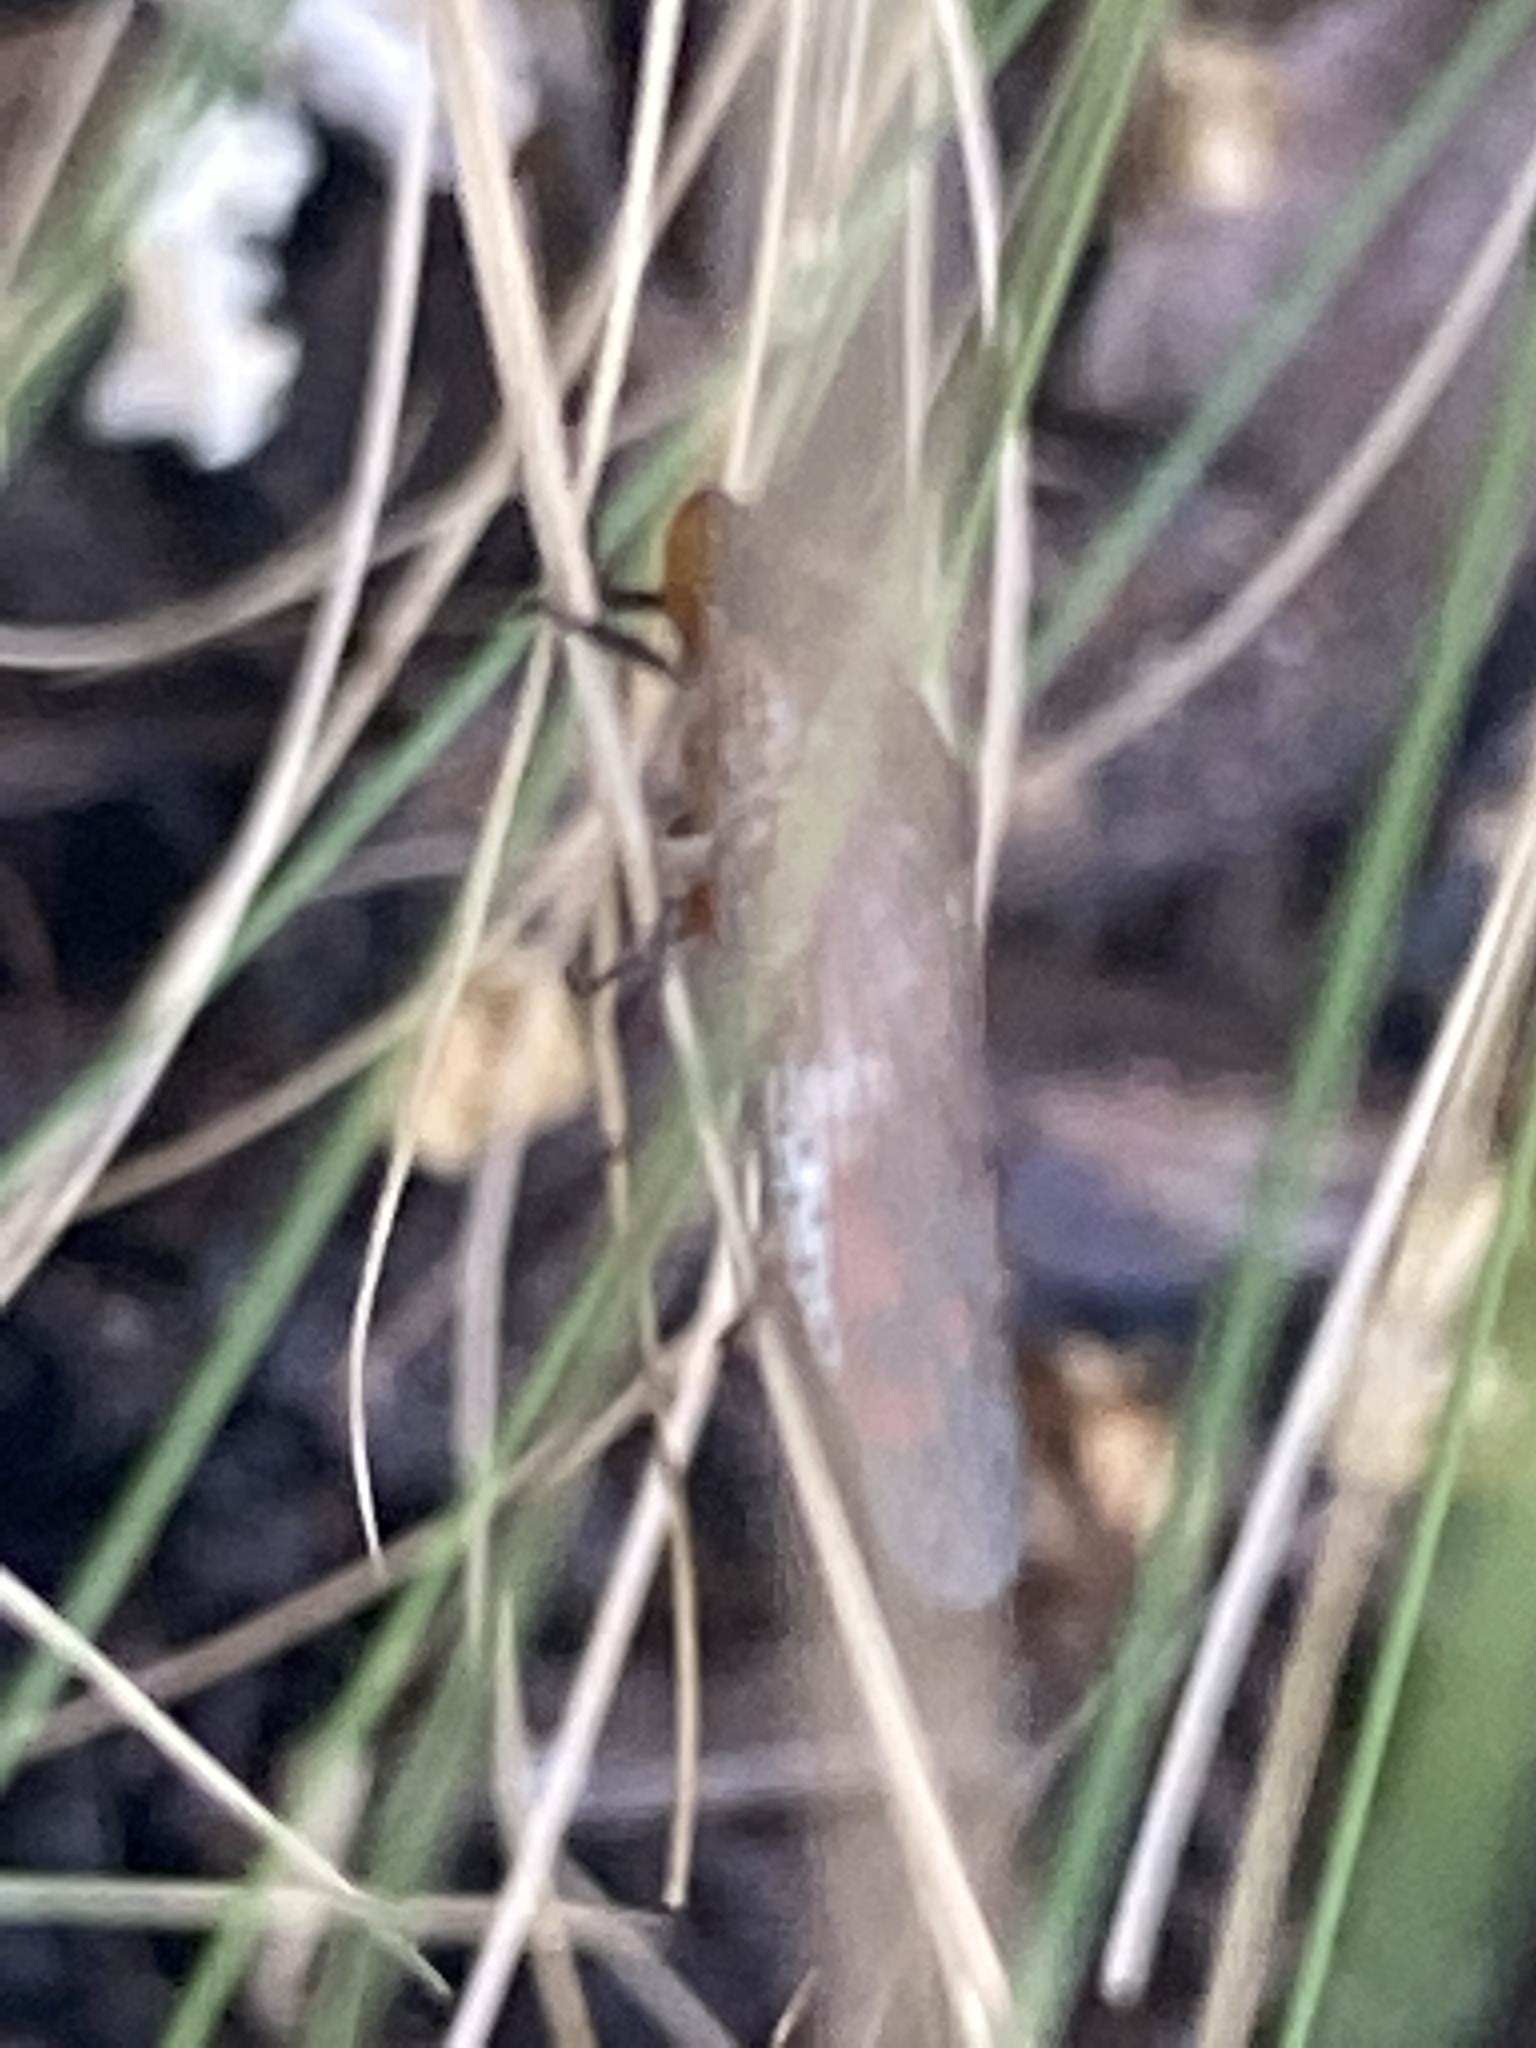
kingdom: Animalia
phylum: Arthropoda
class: Insecta
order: Hemiptera
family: Cicadellidae
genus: Homalodisca
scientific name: Homalodisca vitripennis
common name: Glassy-winged sharpshooter
